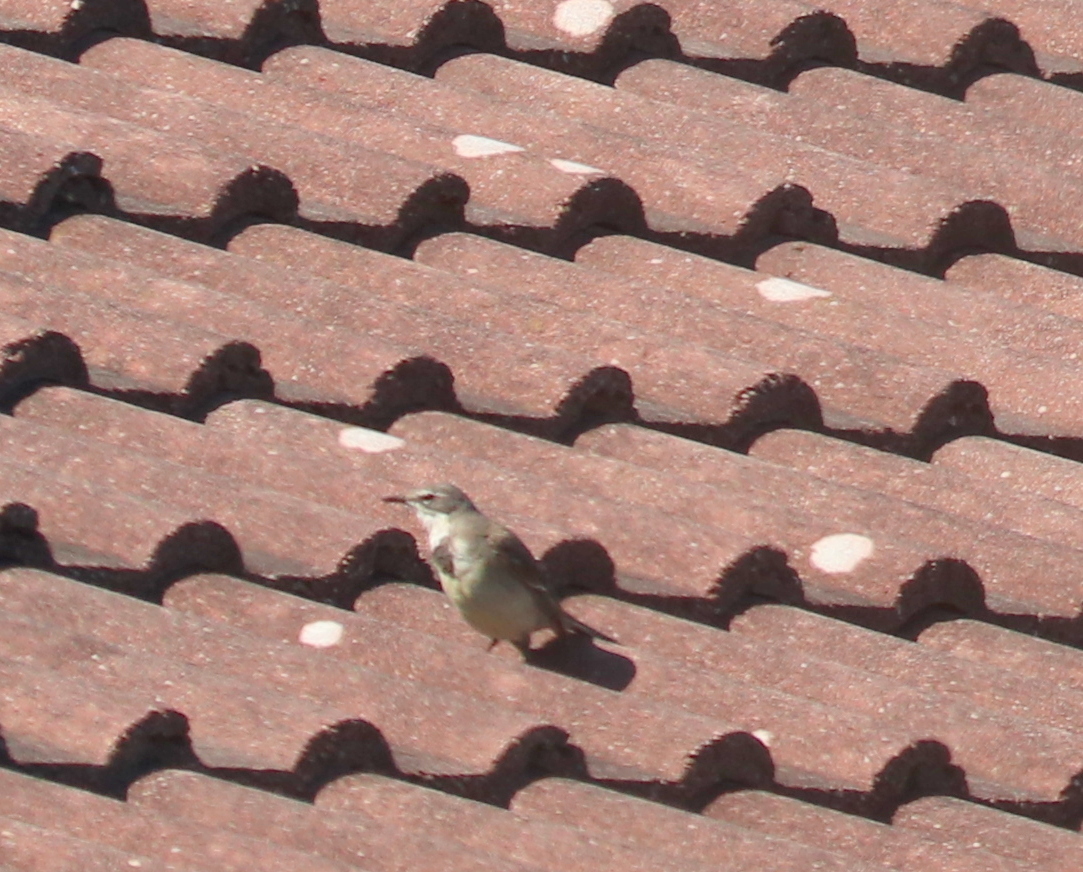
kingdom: Animalia
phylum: Chordata
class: Aves
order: Passeriformes
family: Motacillidae
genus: Motacilla
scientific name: Motacilla capensis
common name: Cape wagtail
